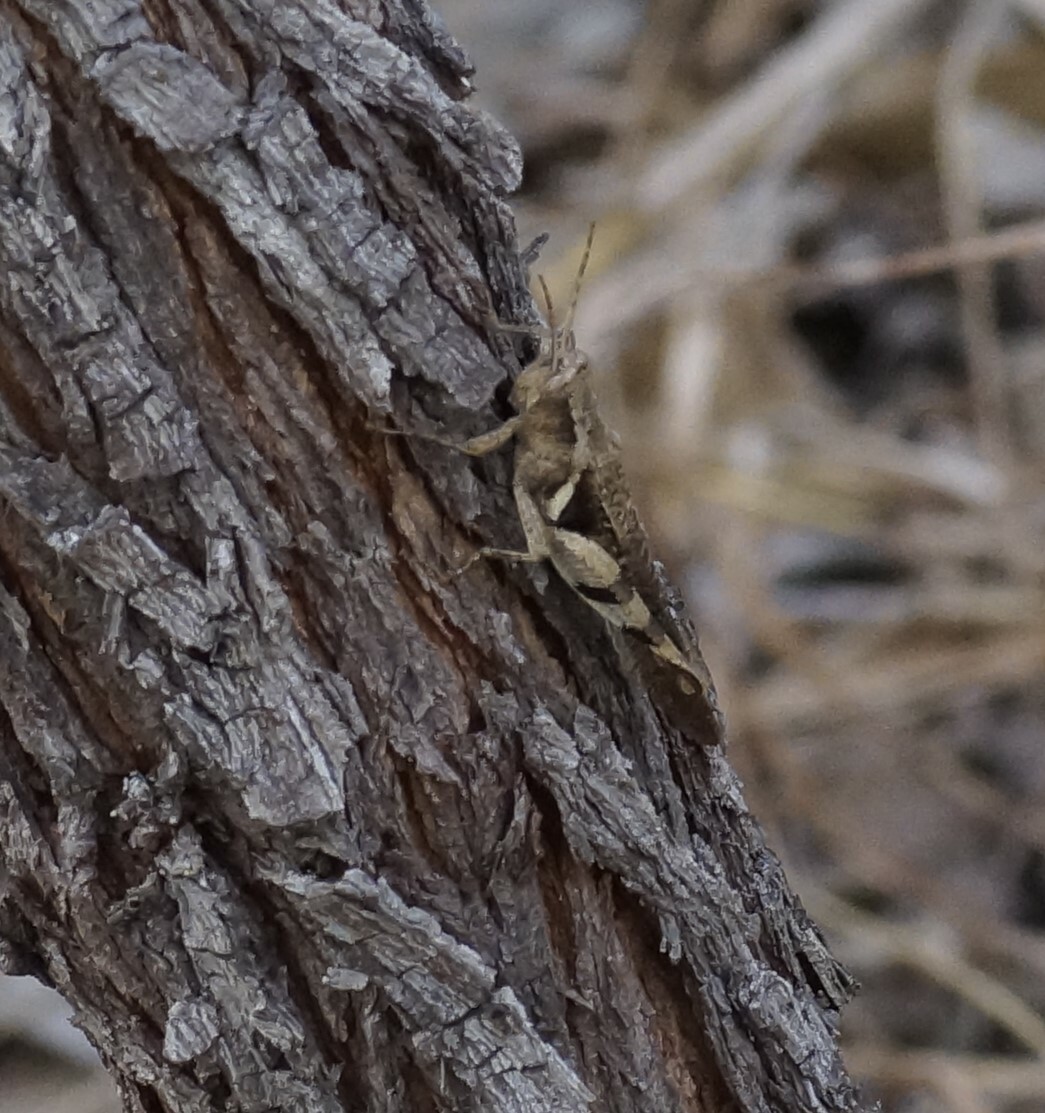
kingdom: Animalia
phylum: Arthropoda
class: Insecta
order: Orthoptera
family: Acrididae
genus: Stenocatantops
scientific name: Stenocatantops angustifrons
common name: Common tropical sharptail
